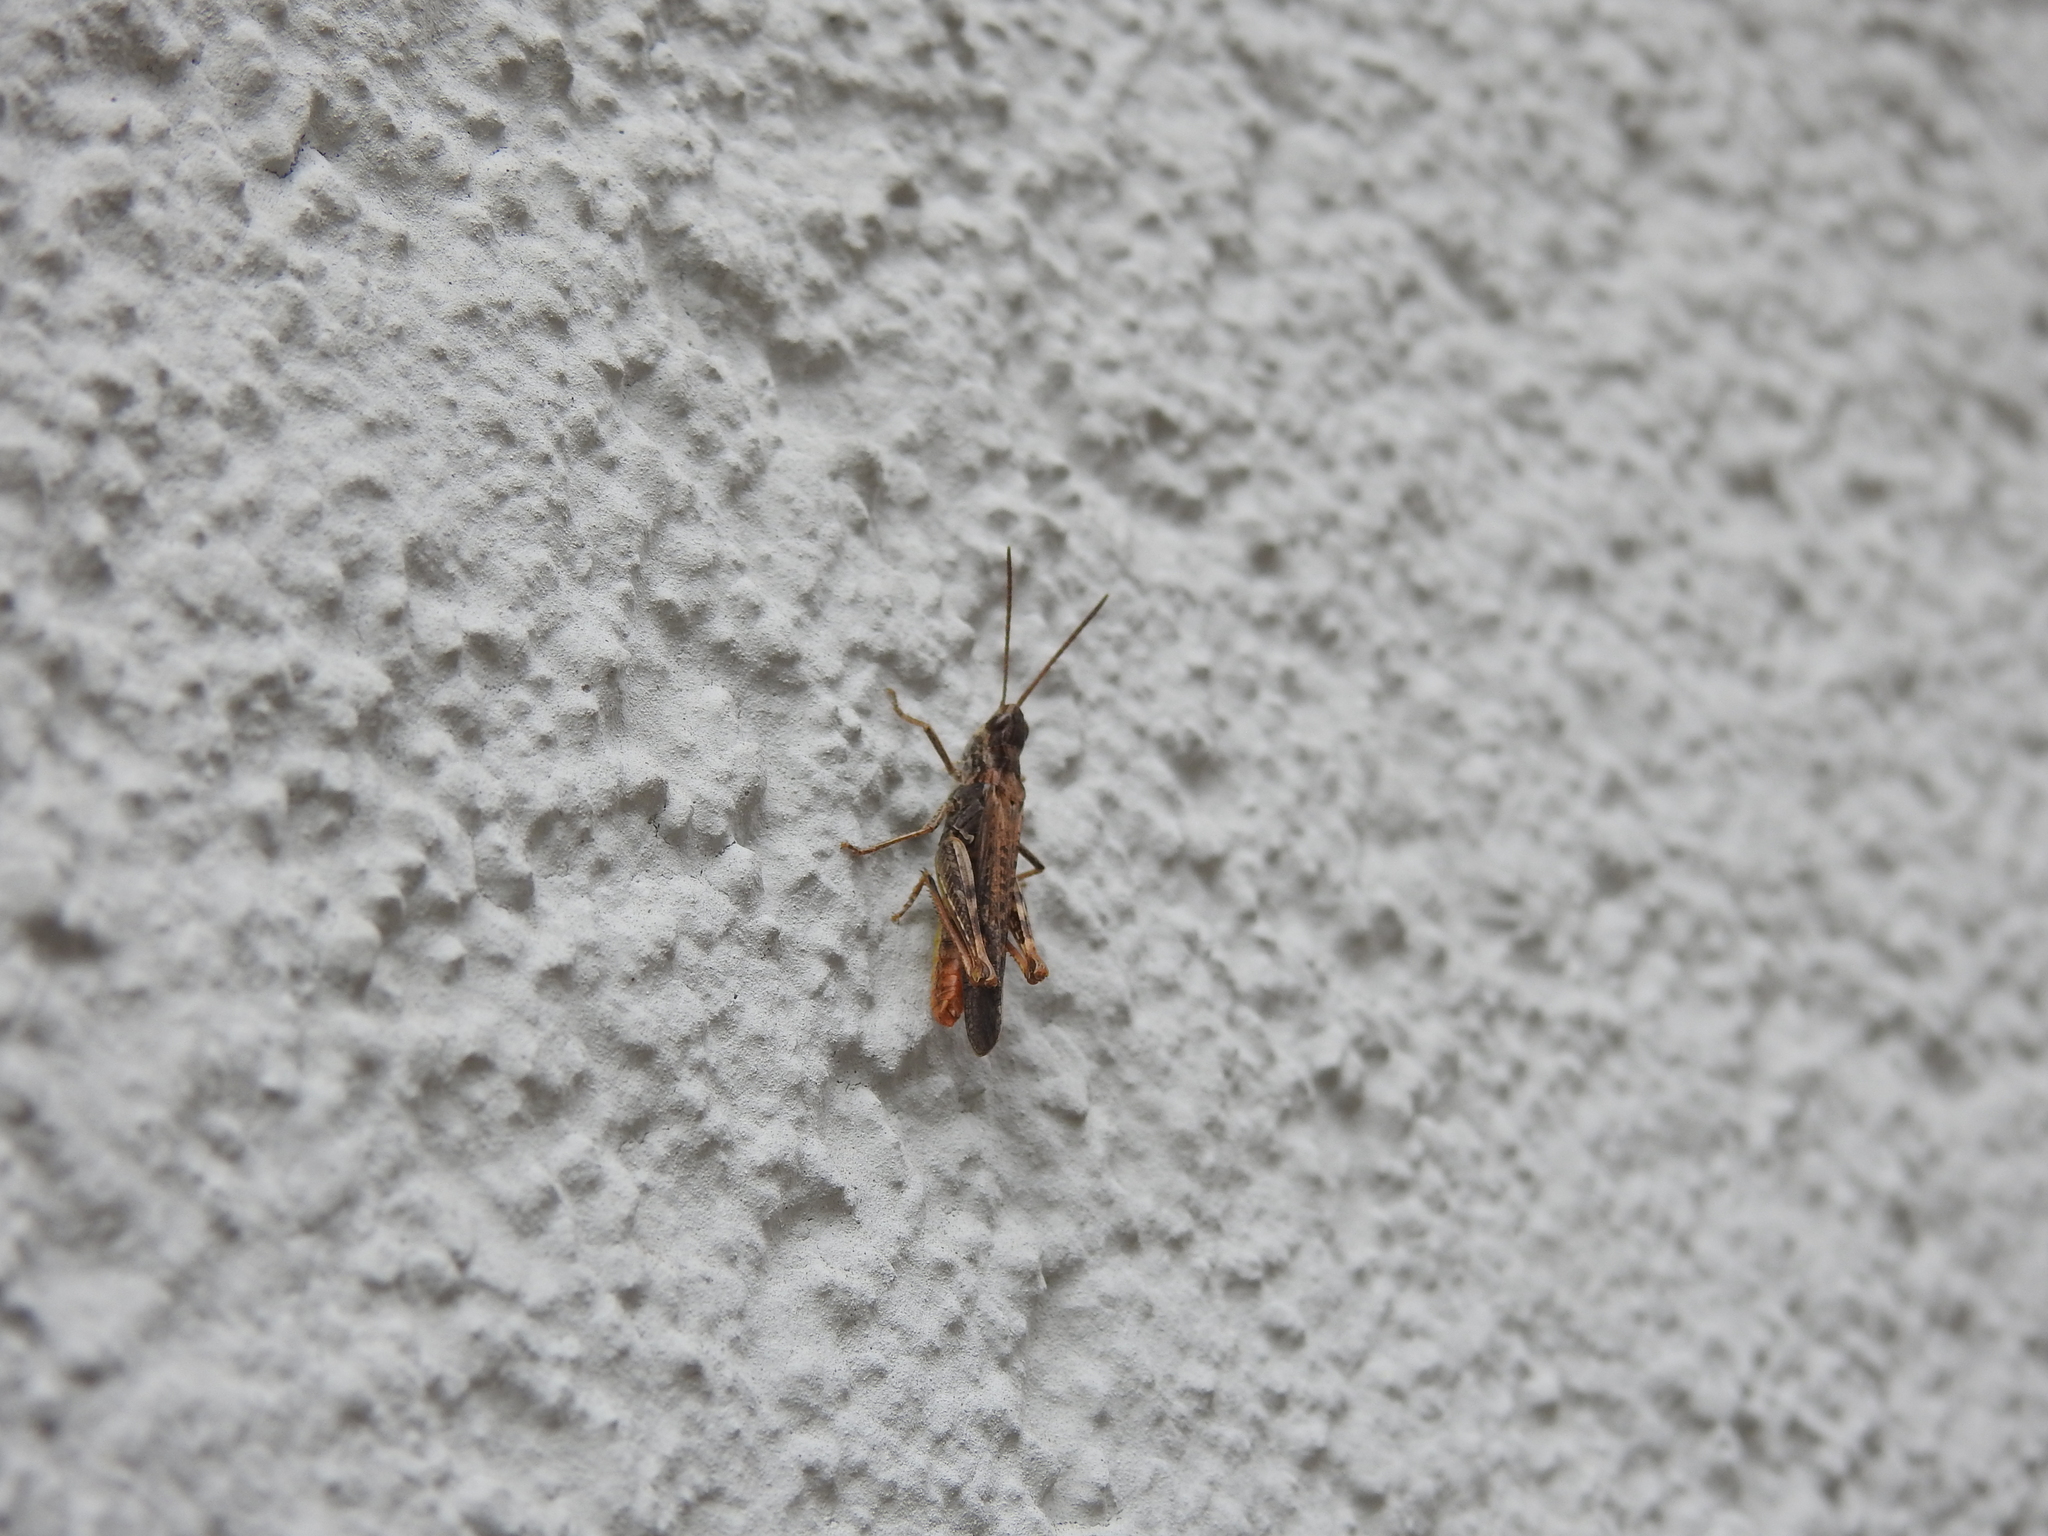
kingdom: Animalia
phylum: Arthropoda
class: Insecta
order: Orthoptera
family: Acrididae
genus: Chorthippus
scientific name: Chorthippus brunneus
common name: Field grasshopper
